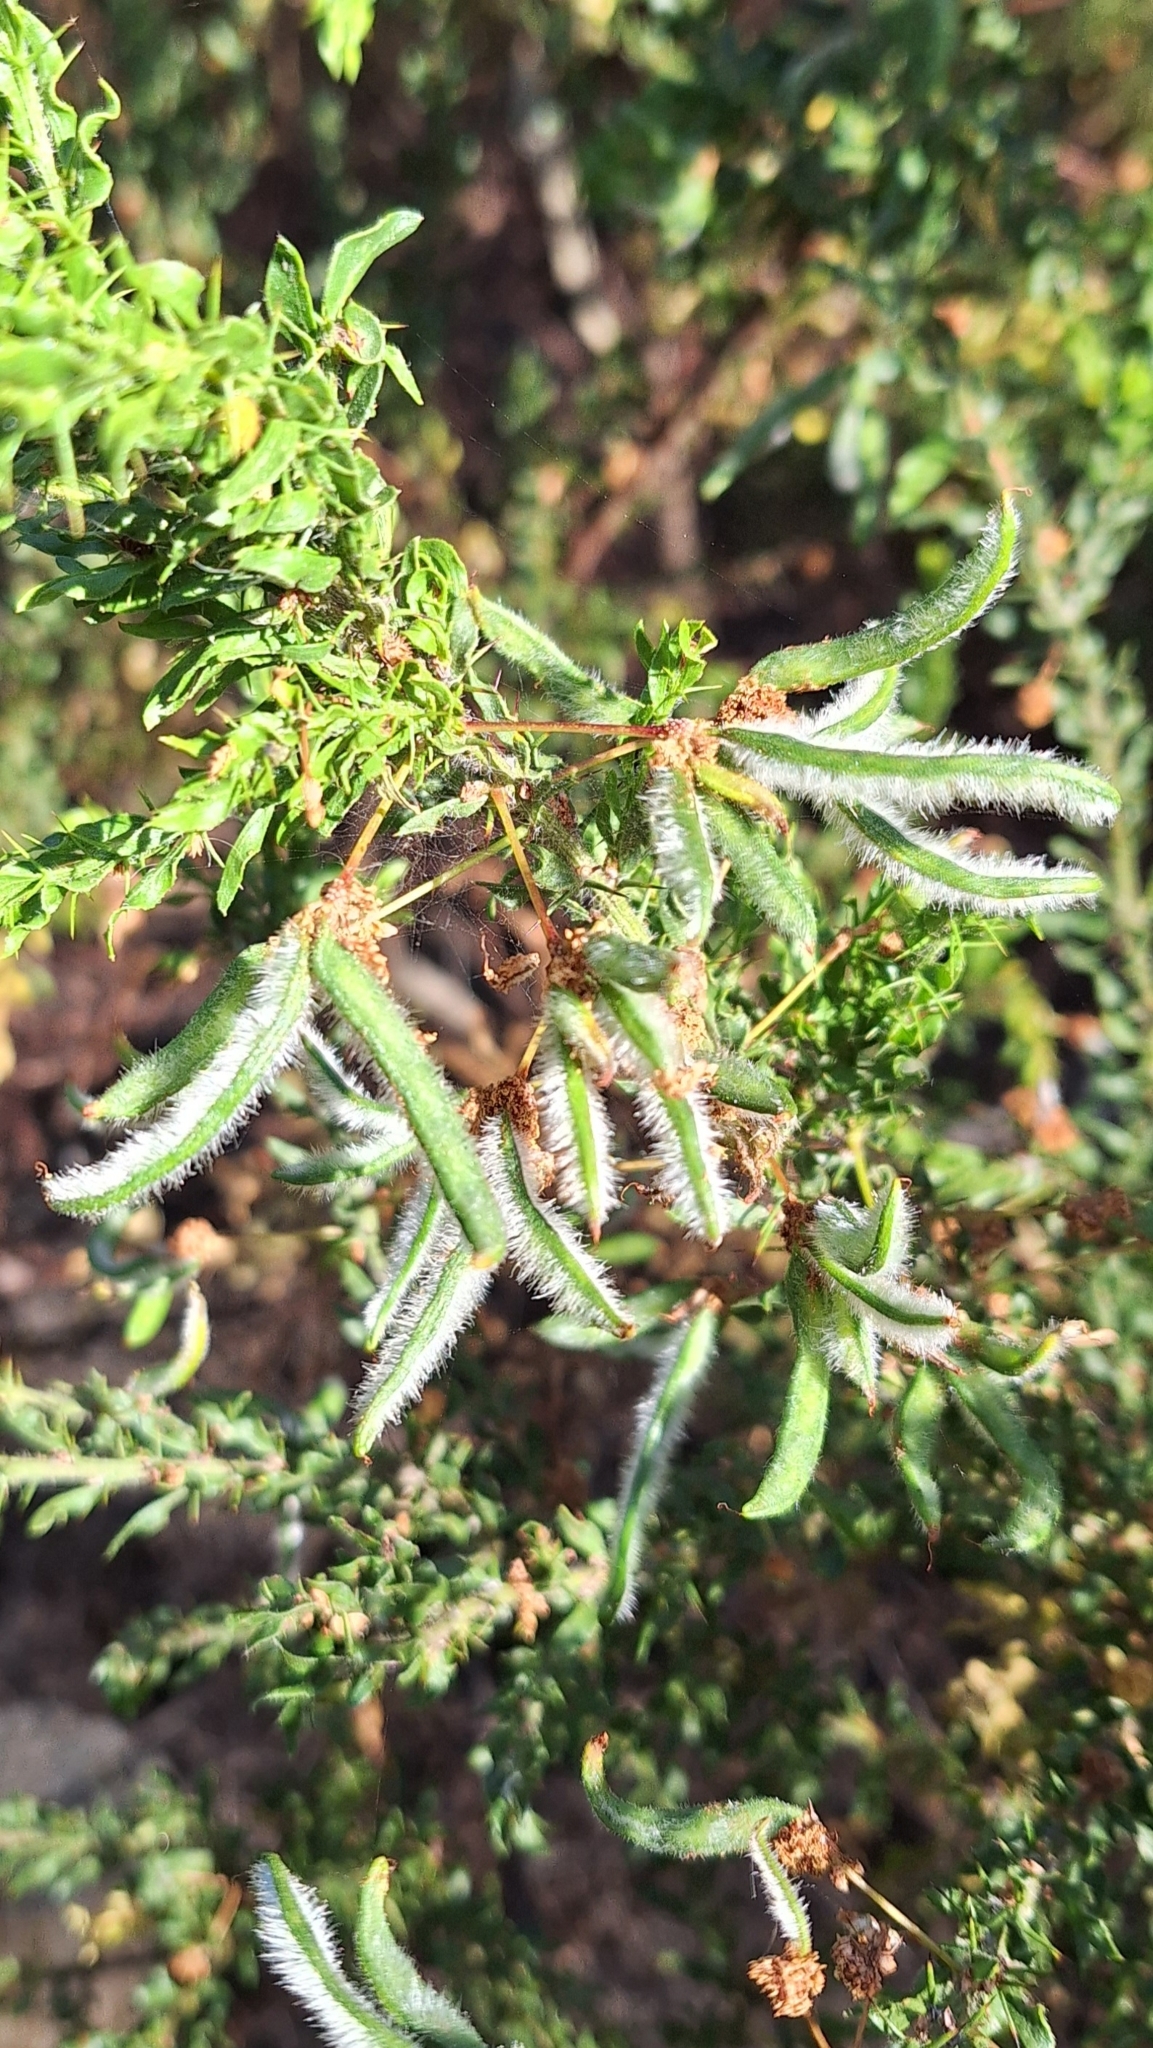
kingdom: Plantae
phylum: Tracheophyta
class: Magnoliopsida
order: Fabales
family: Fabaceae
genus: Acacia
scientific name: Acacia paradoxa
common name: Paradox acacia
